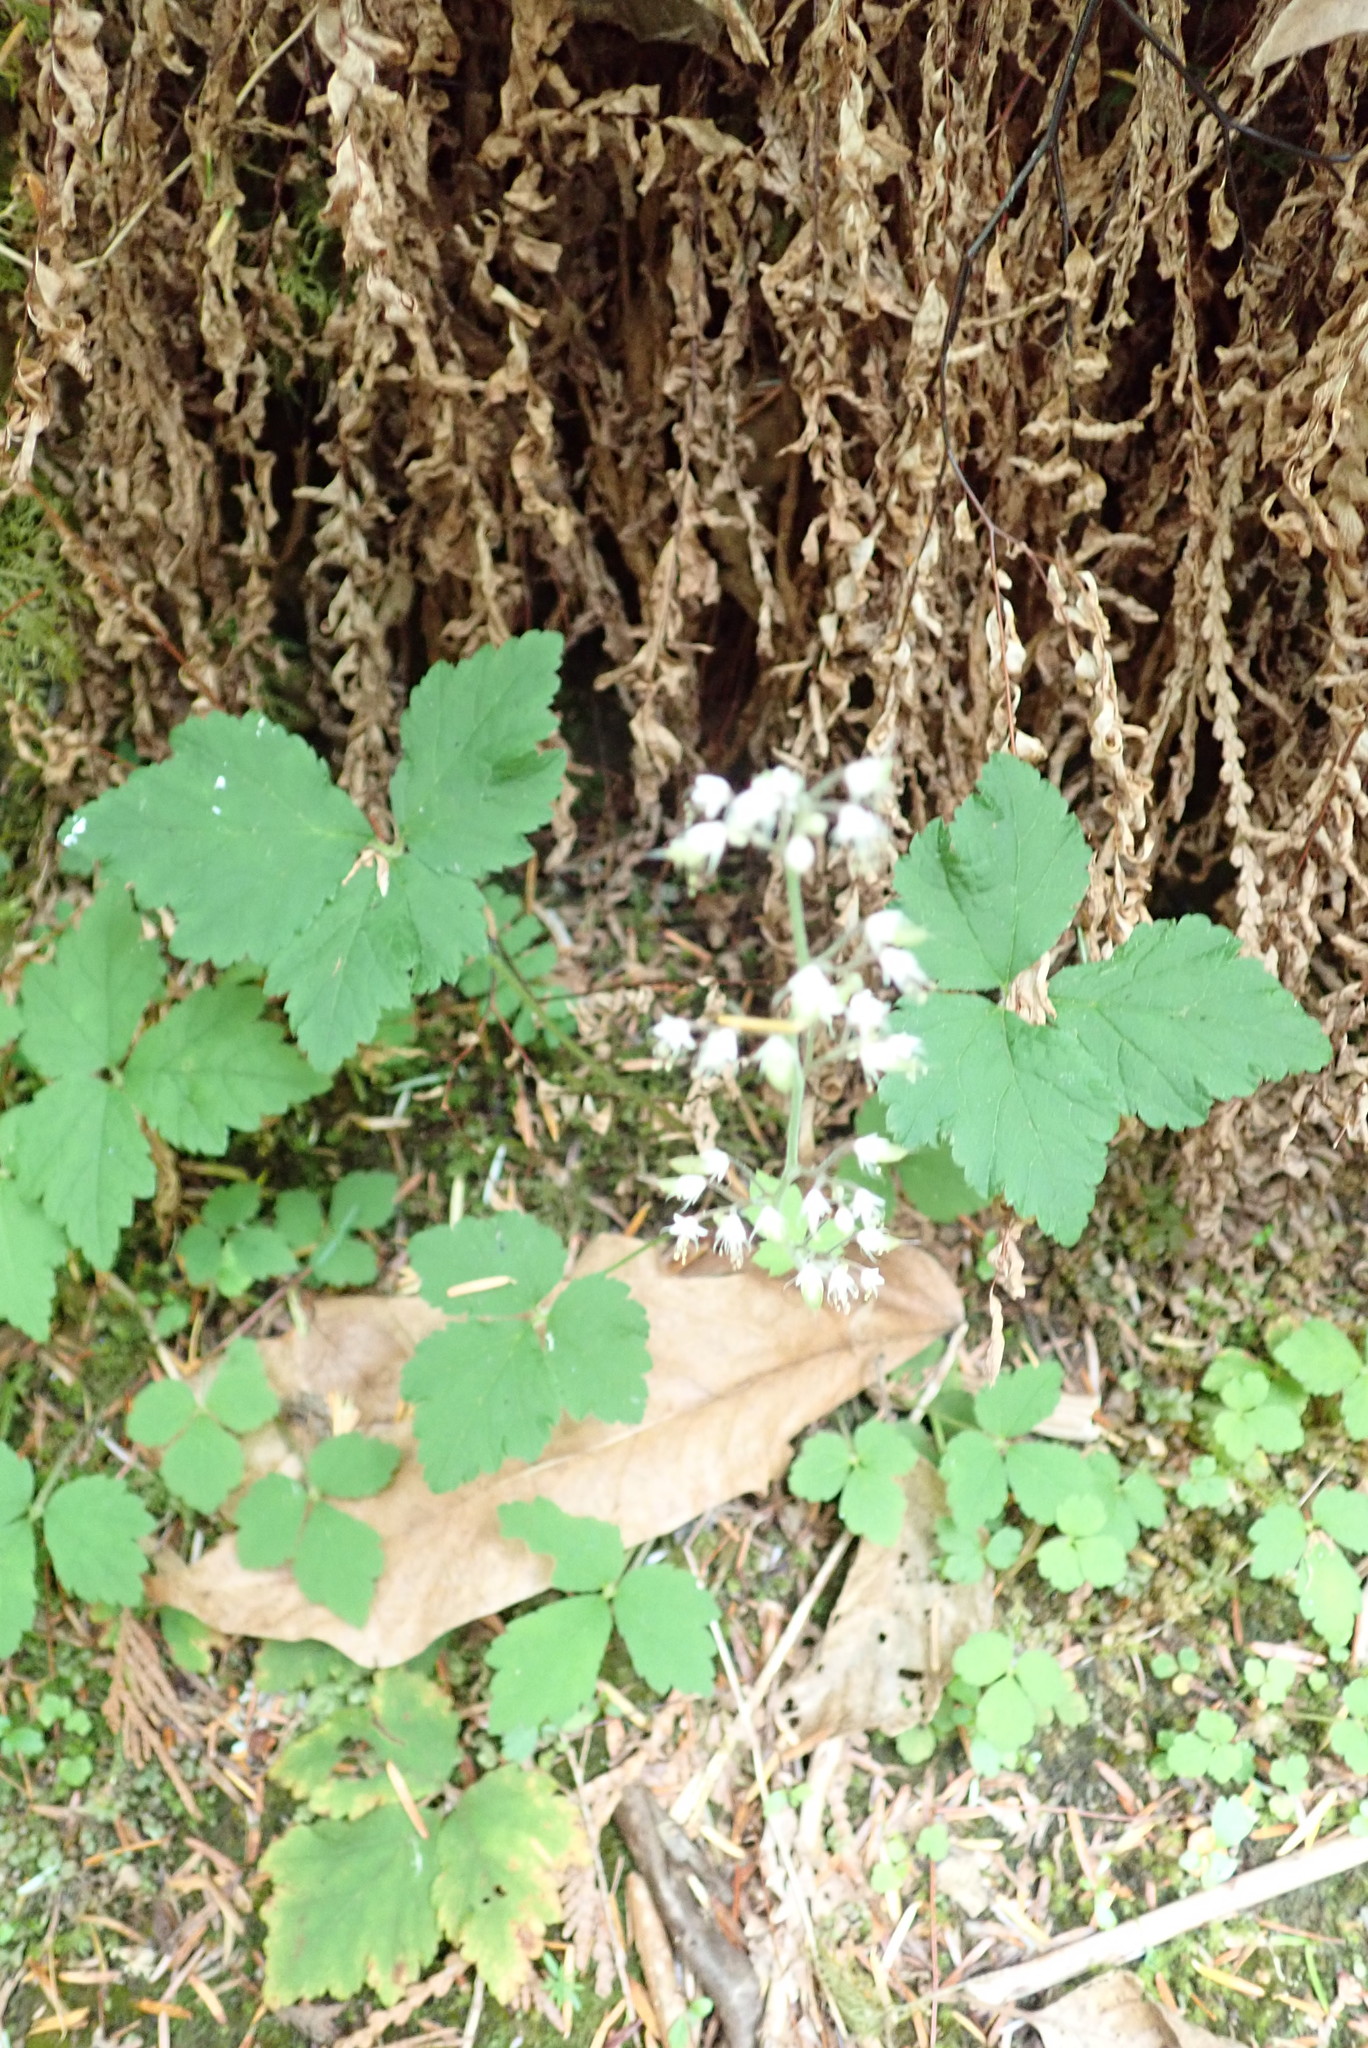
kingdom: Plantae
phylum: Tracheophyta
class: Magnoliopsida
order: Saxifragales
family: Saxifragaceae
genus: Tiarella
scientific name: Tiarella trifoliata
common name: Sugar-scoop
